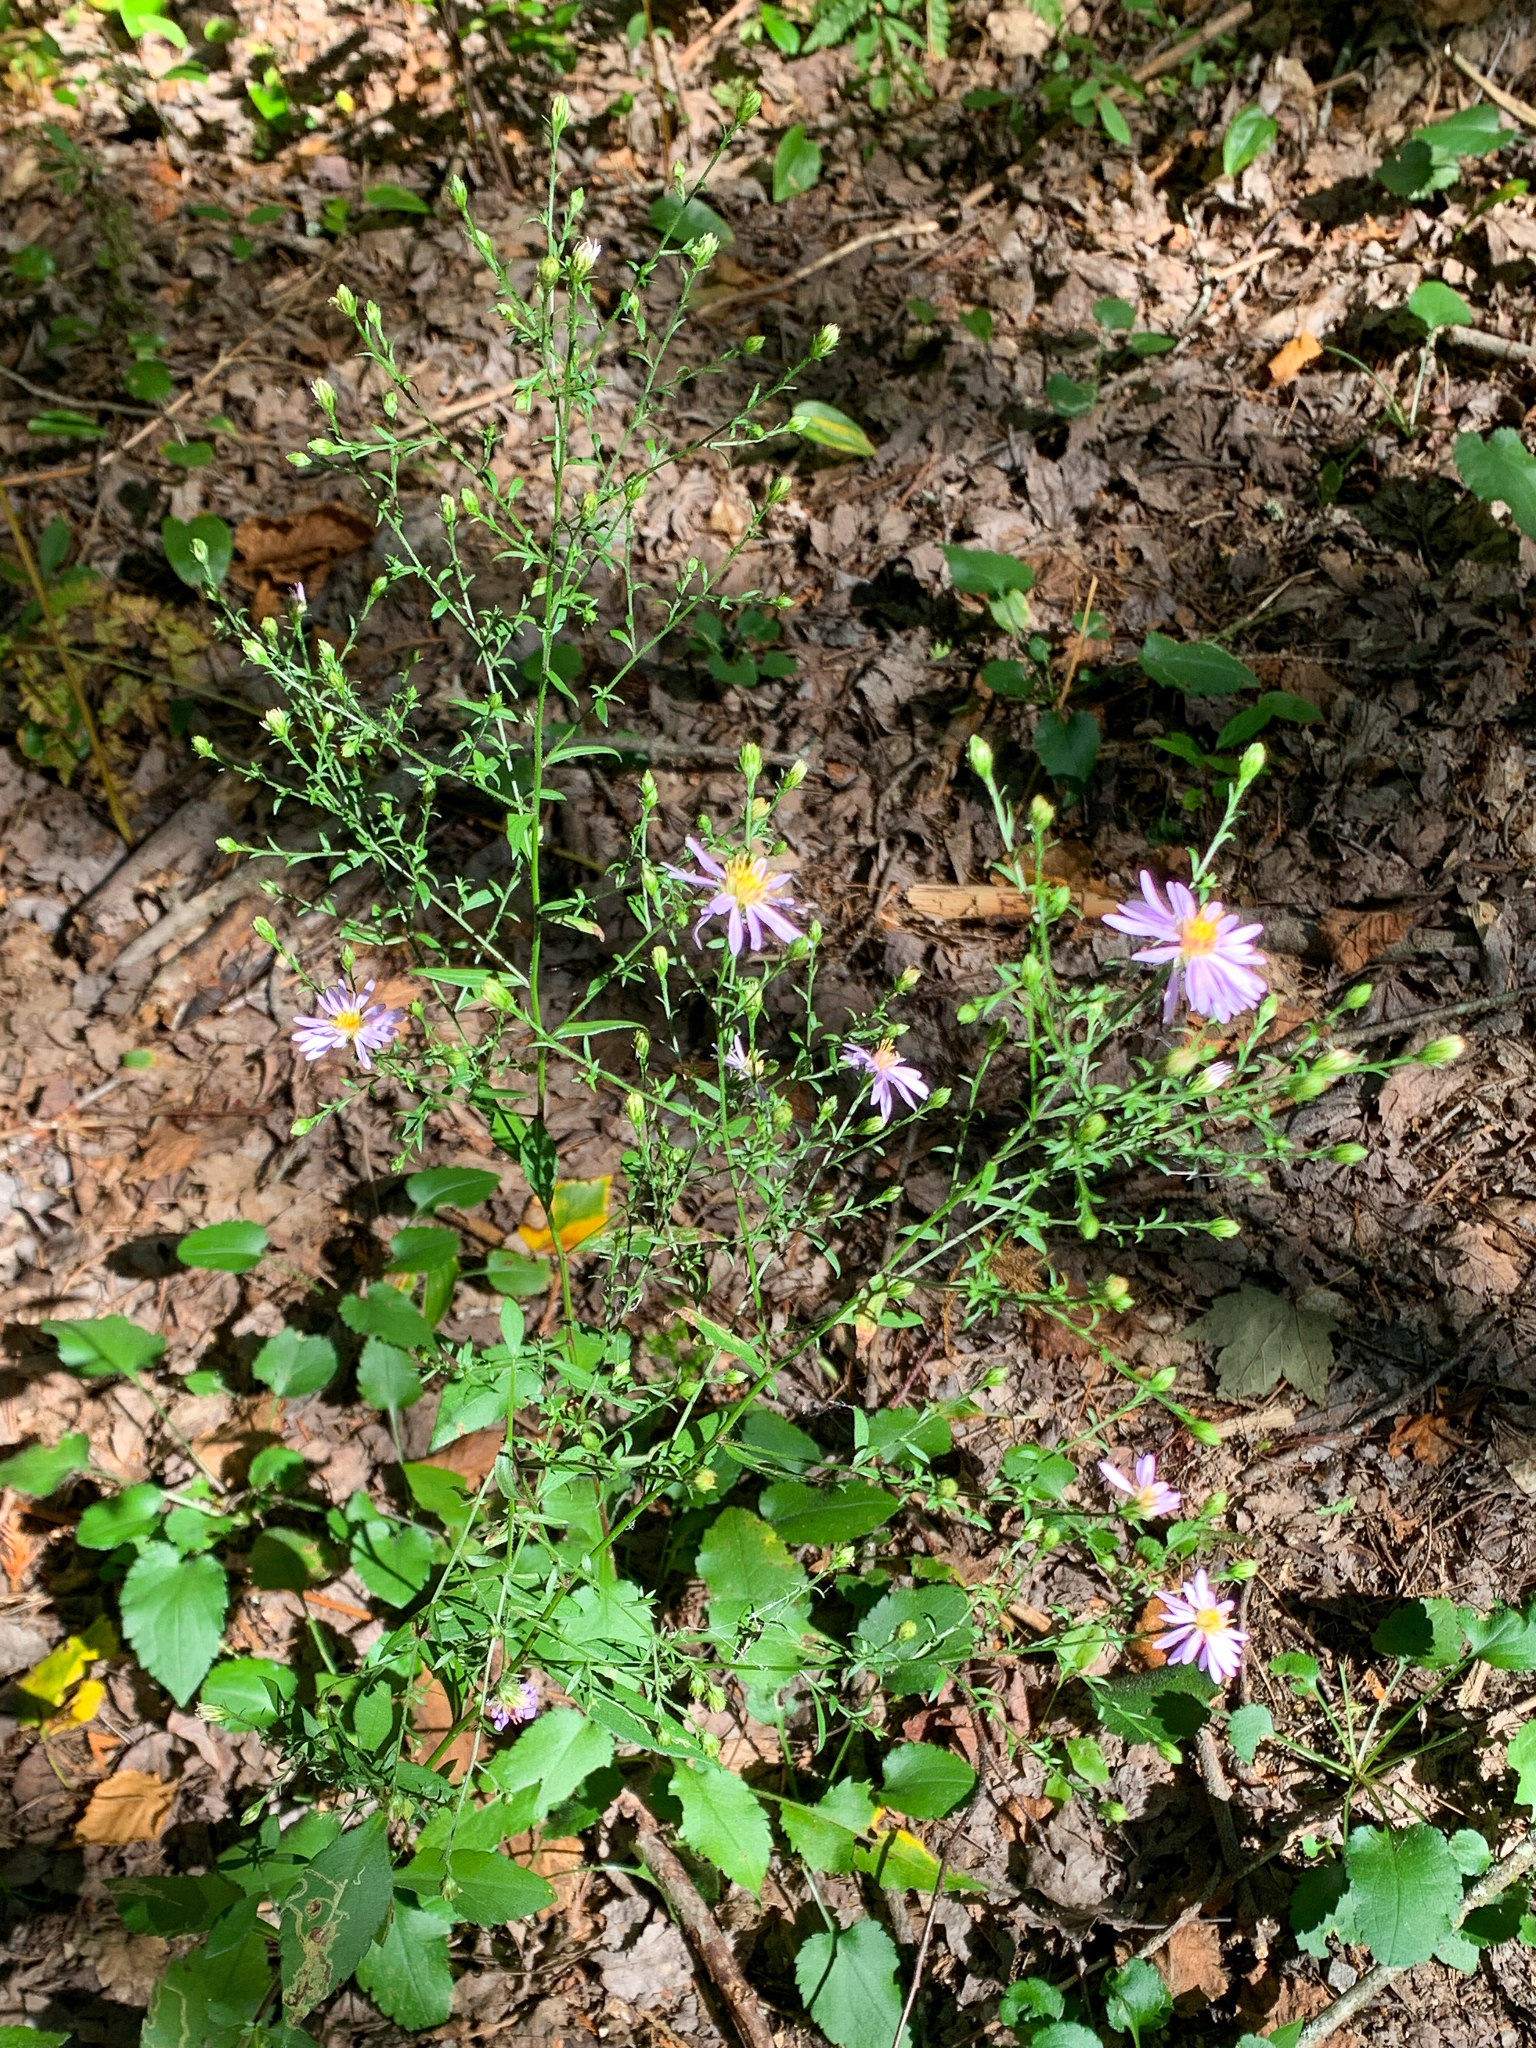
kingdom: Plantae
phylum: Tracheophyta
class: Magnoliopsida
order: Asterales
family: Asteraceae
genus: Symphyotrichum
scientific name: Symphyotrichum ciliolatum
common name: Fringed blue aster
